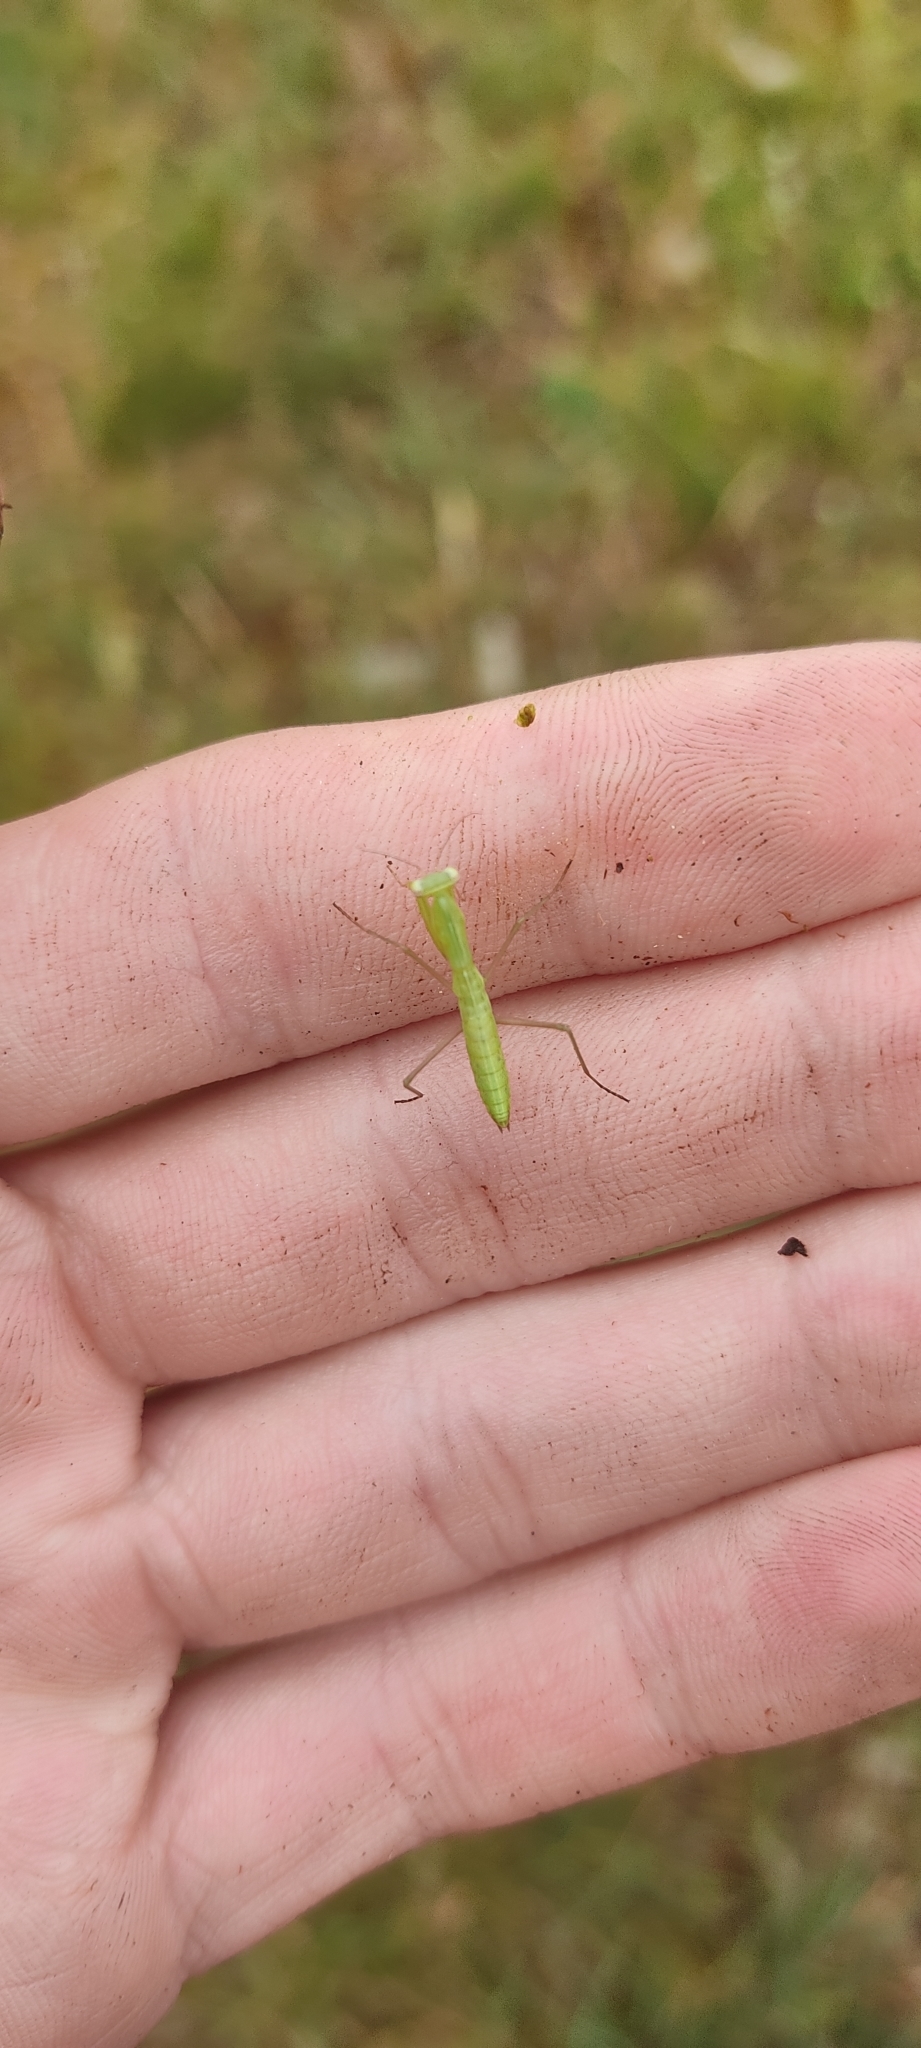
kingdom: Animalia
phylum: Arthropoda
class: Insecta
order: Mantodea
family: Mantidae
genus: Mantis
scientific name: Mantis religiosa
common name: Praying mantis
